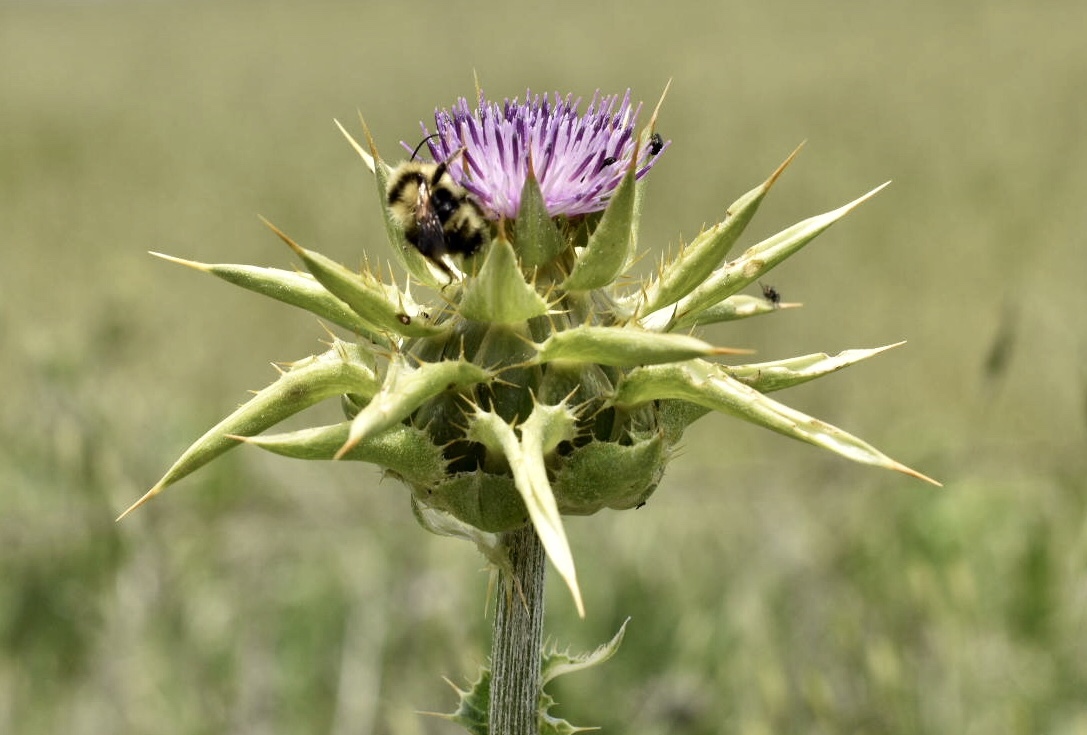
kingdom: Plantae
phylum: Tracheophyta
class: Magnoliopsida
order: Asterales
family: Asteraceae
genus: Silybum
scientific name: Silybum marianum
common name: Milk thistle
